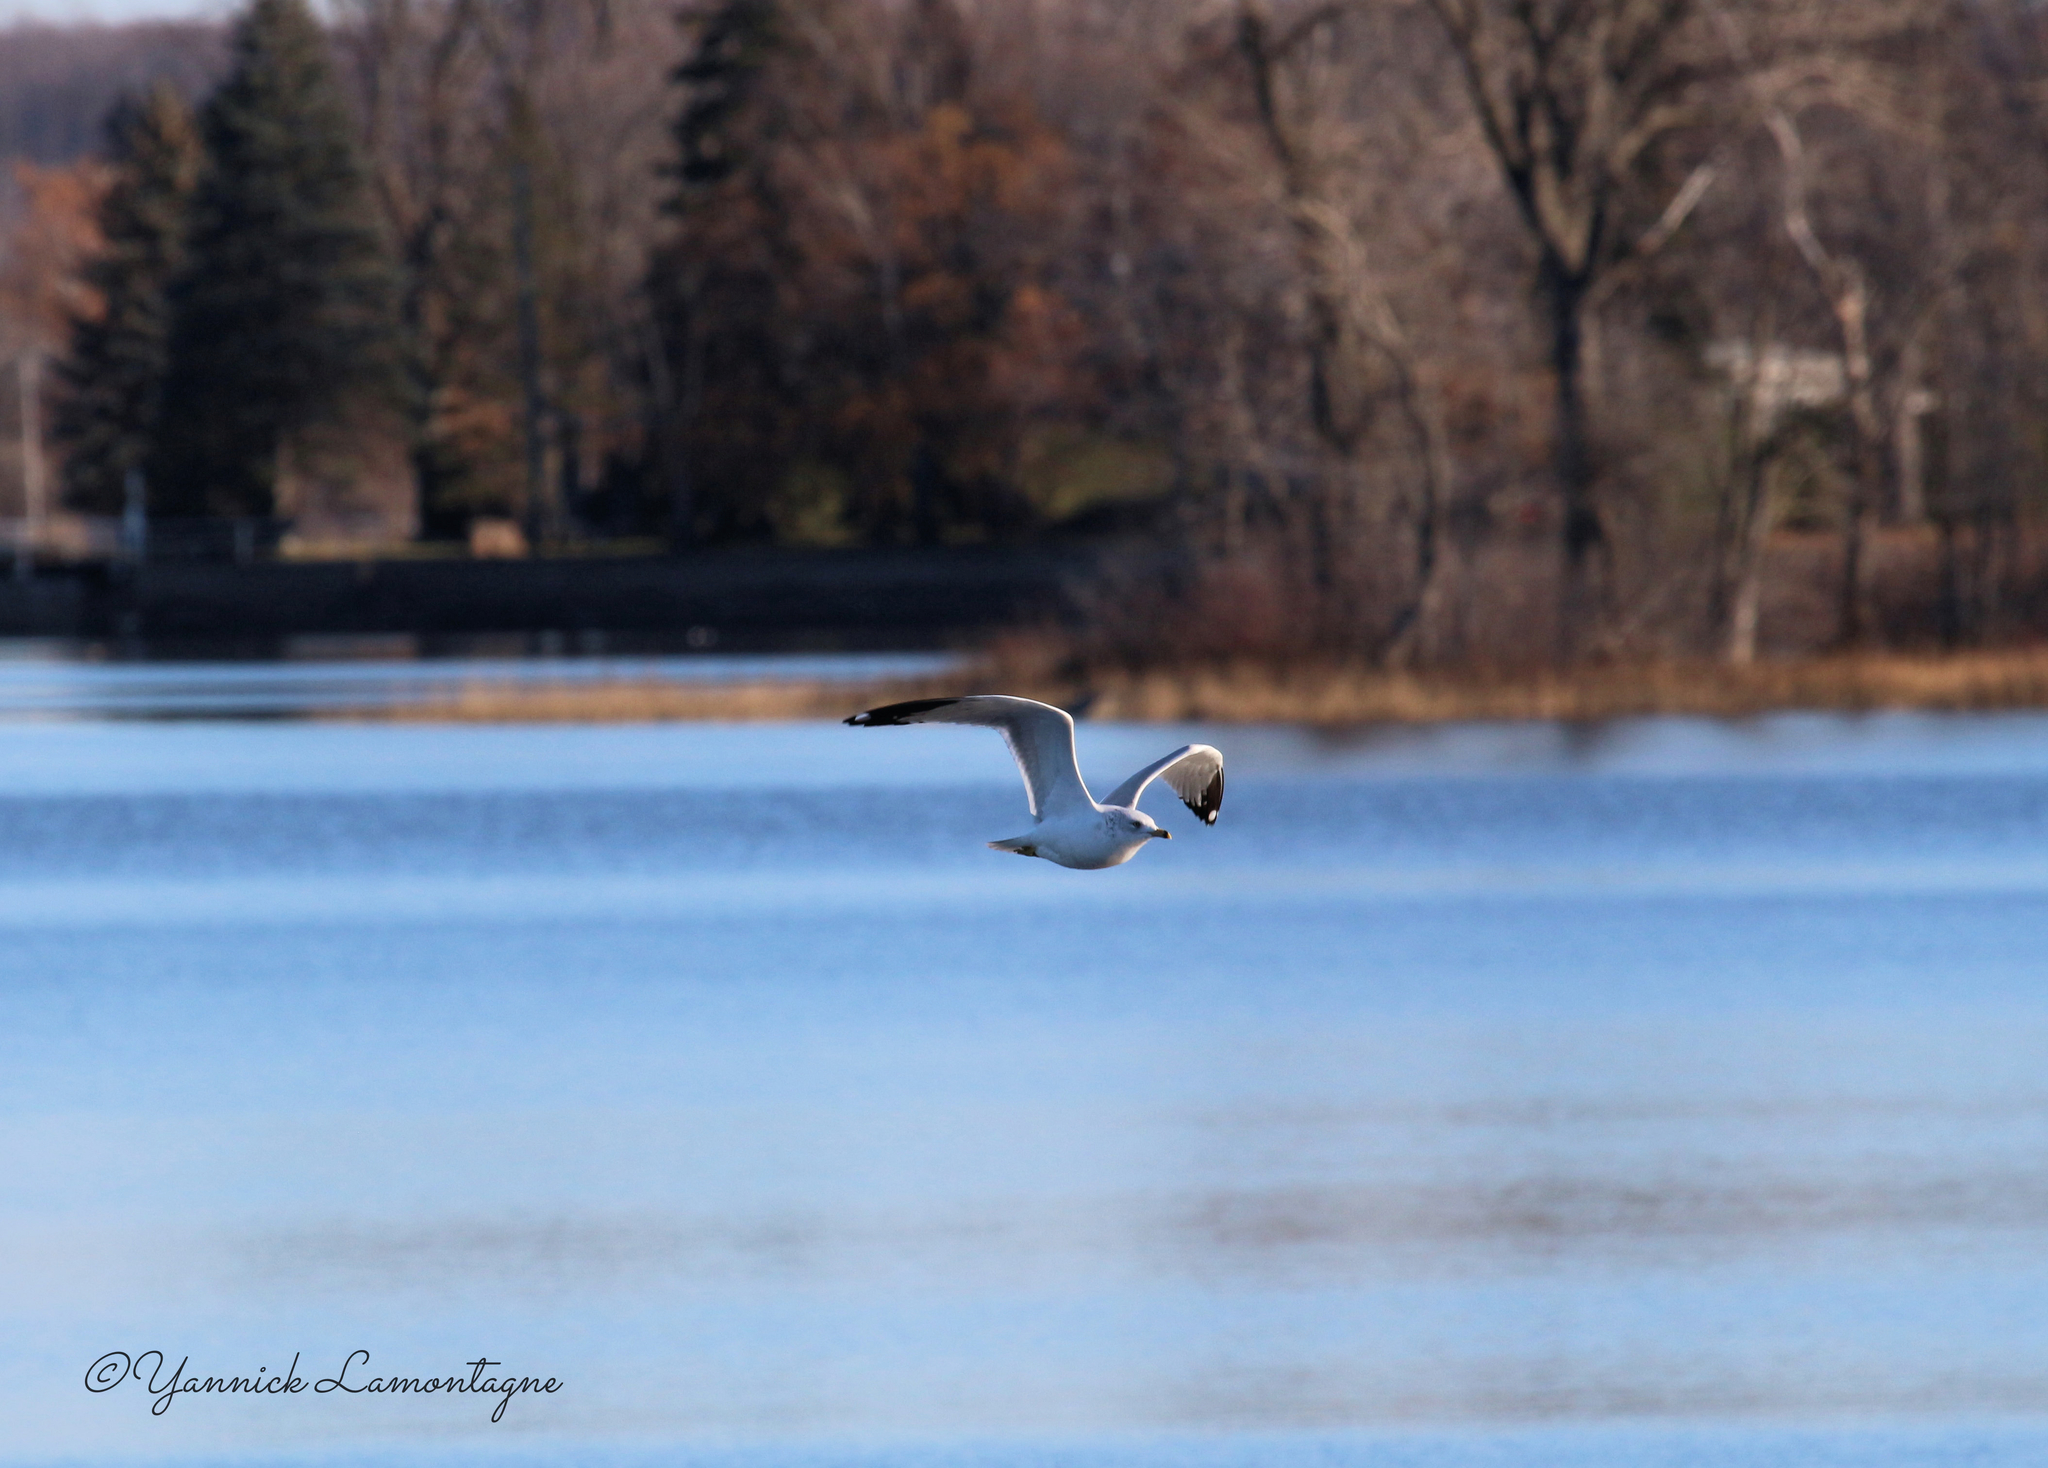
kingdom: Animalia
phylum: Chordata
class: Aves
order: Charadriiformes
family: Laridae
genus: Larus
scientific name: Larus delawarensis
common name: Ring-billed gull
